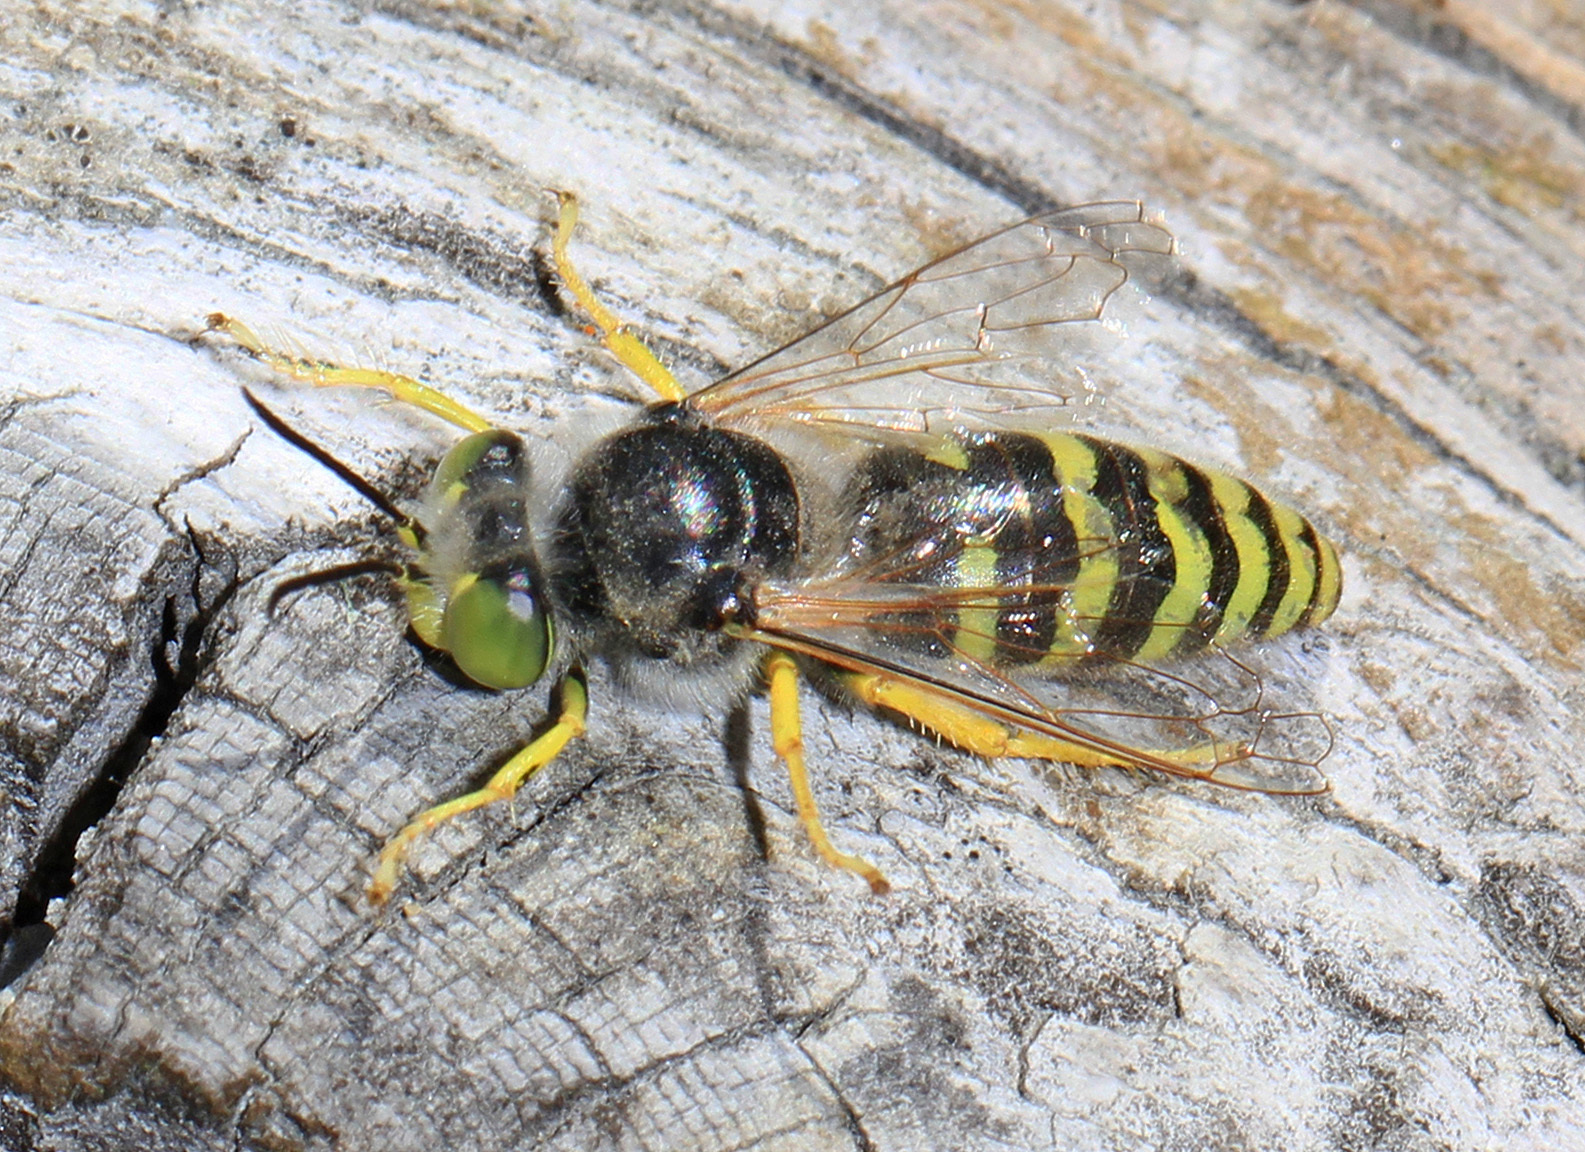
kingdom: Animalia
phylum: Arthropoda
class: Insecta
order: Hymenoptera
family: Crabronidae
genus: Bembix
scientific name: Bembix americana
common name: American sand wasp
